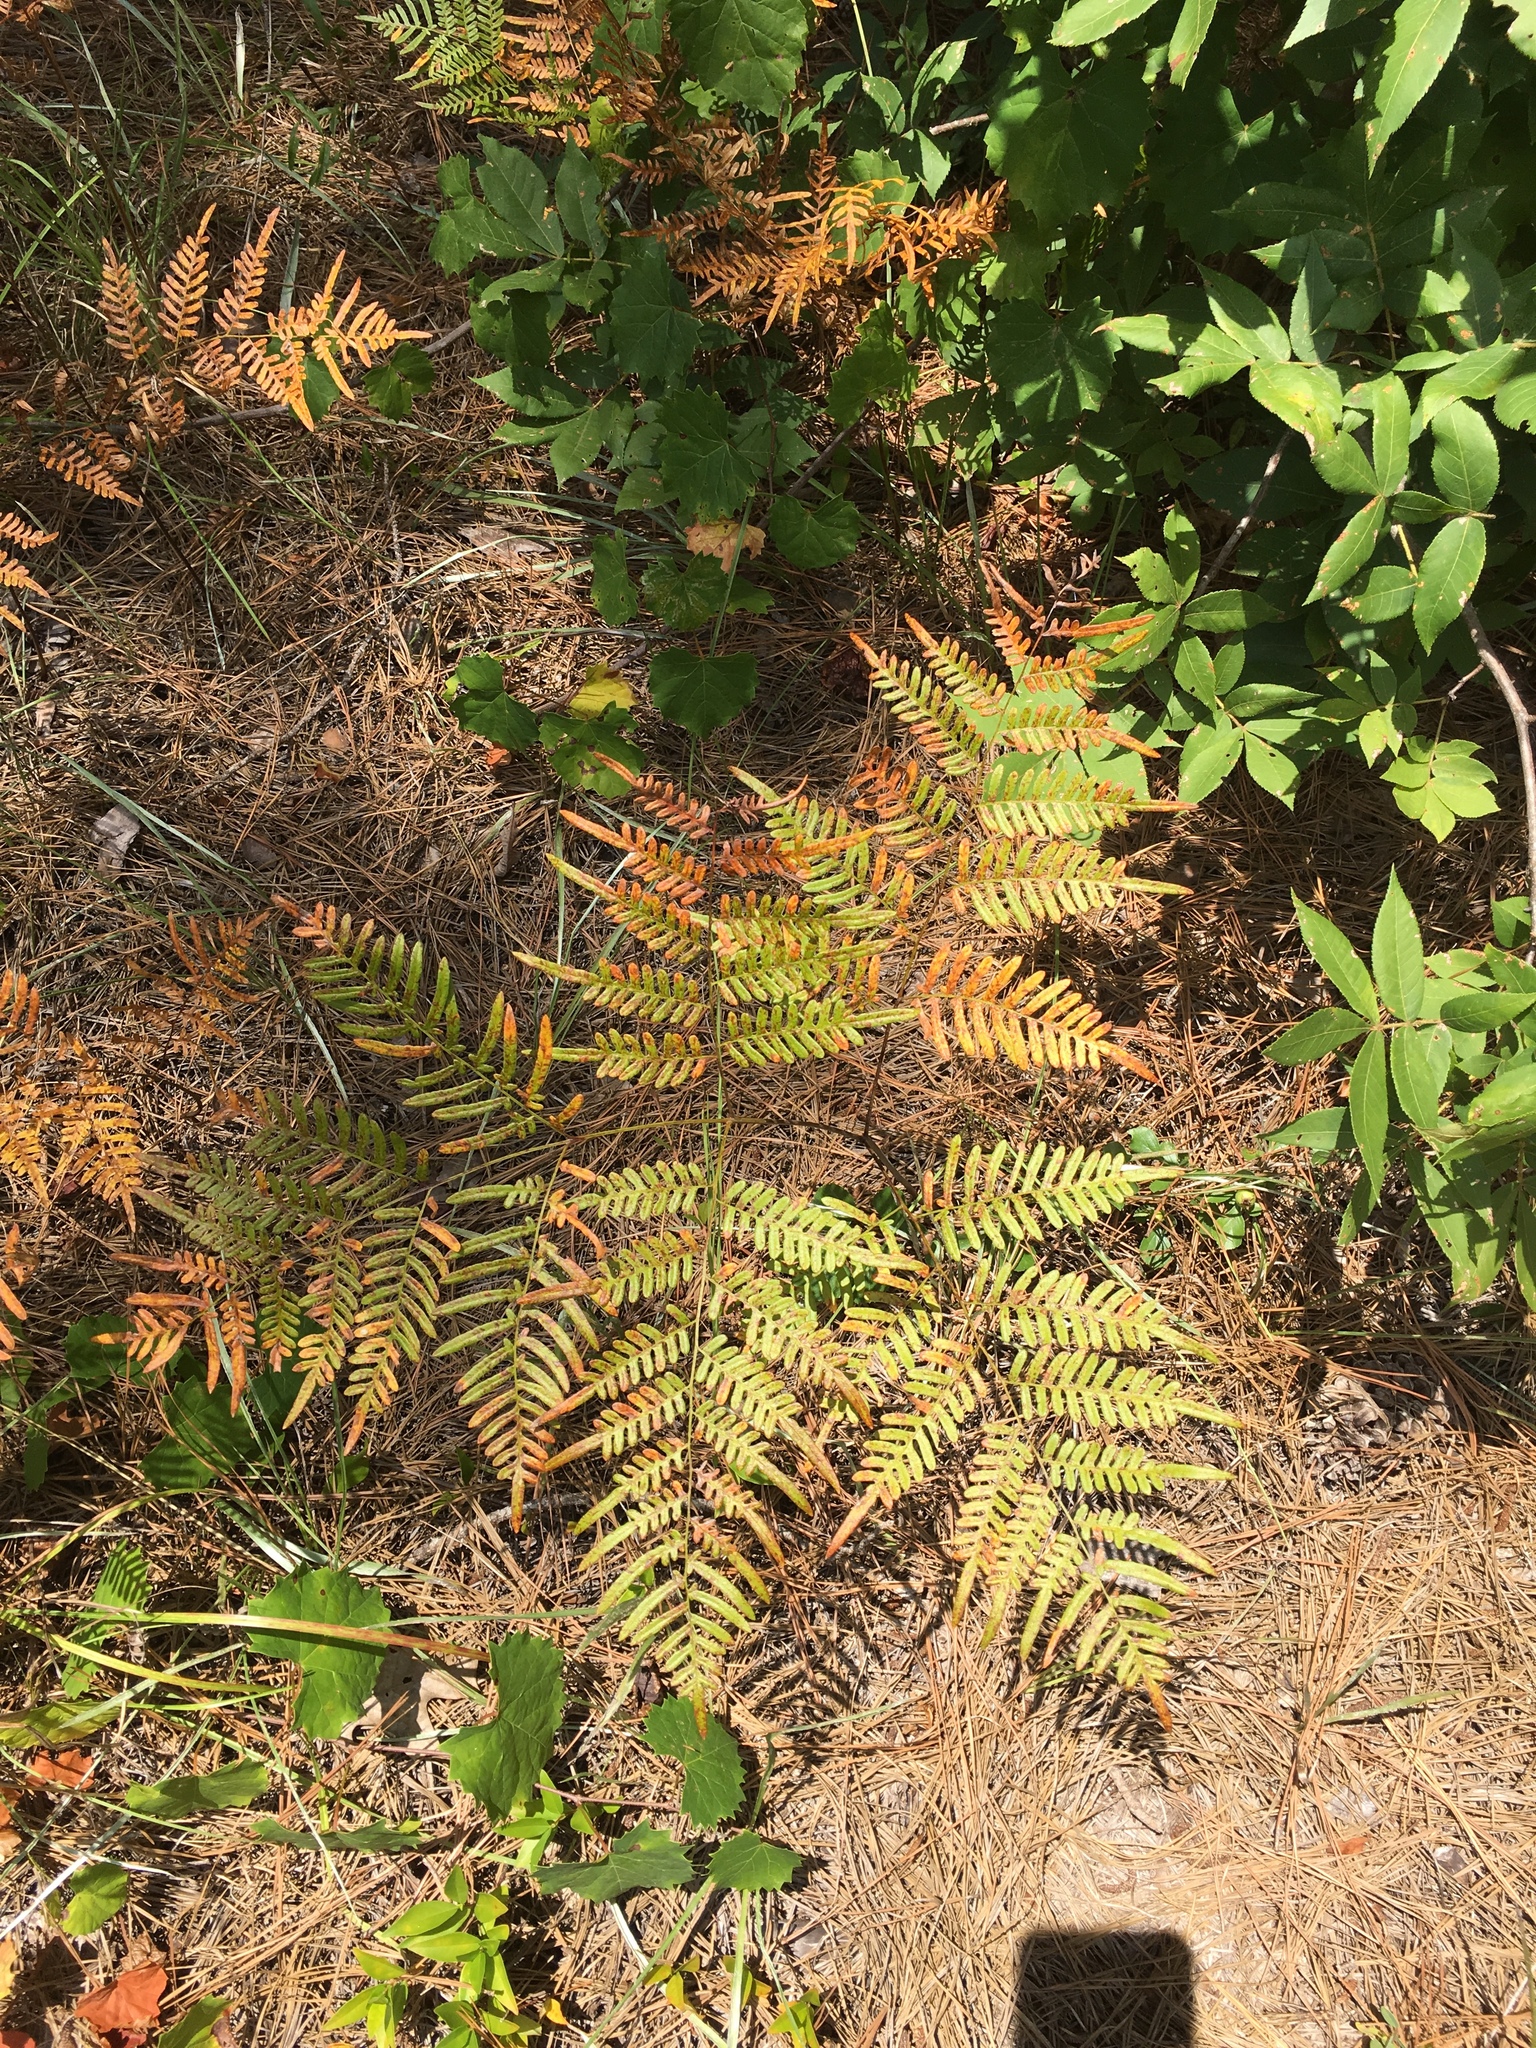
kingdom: Plantae
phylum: Tracheophyta
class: Polypodiopsida
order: Polypodiales
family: Dennstaedtiaceae
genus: Pteridium
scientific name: Pteridium aquilinum
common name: Bracken
